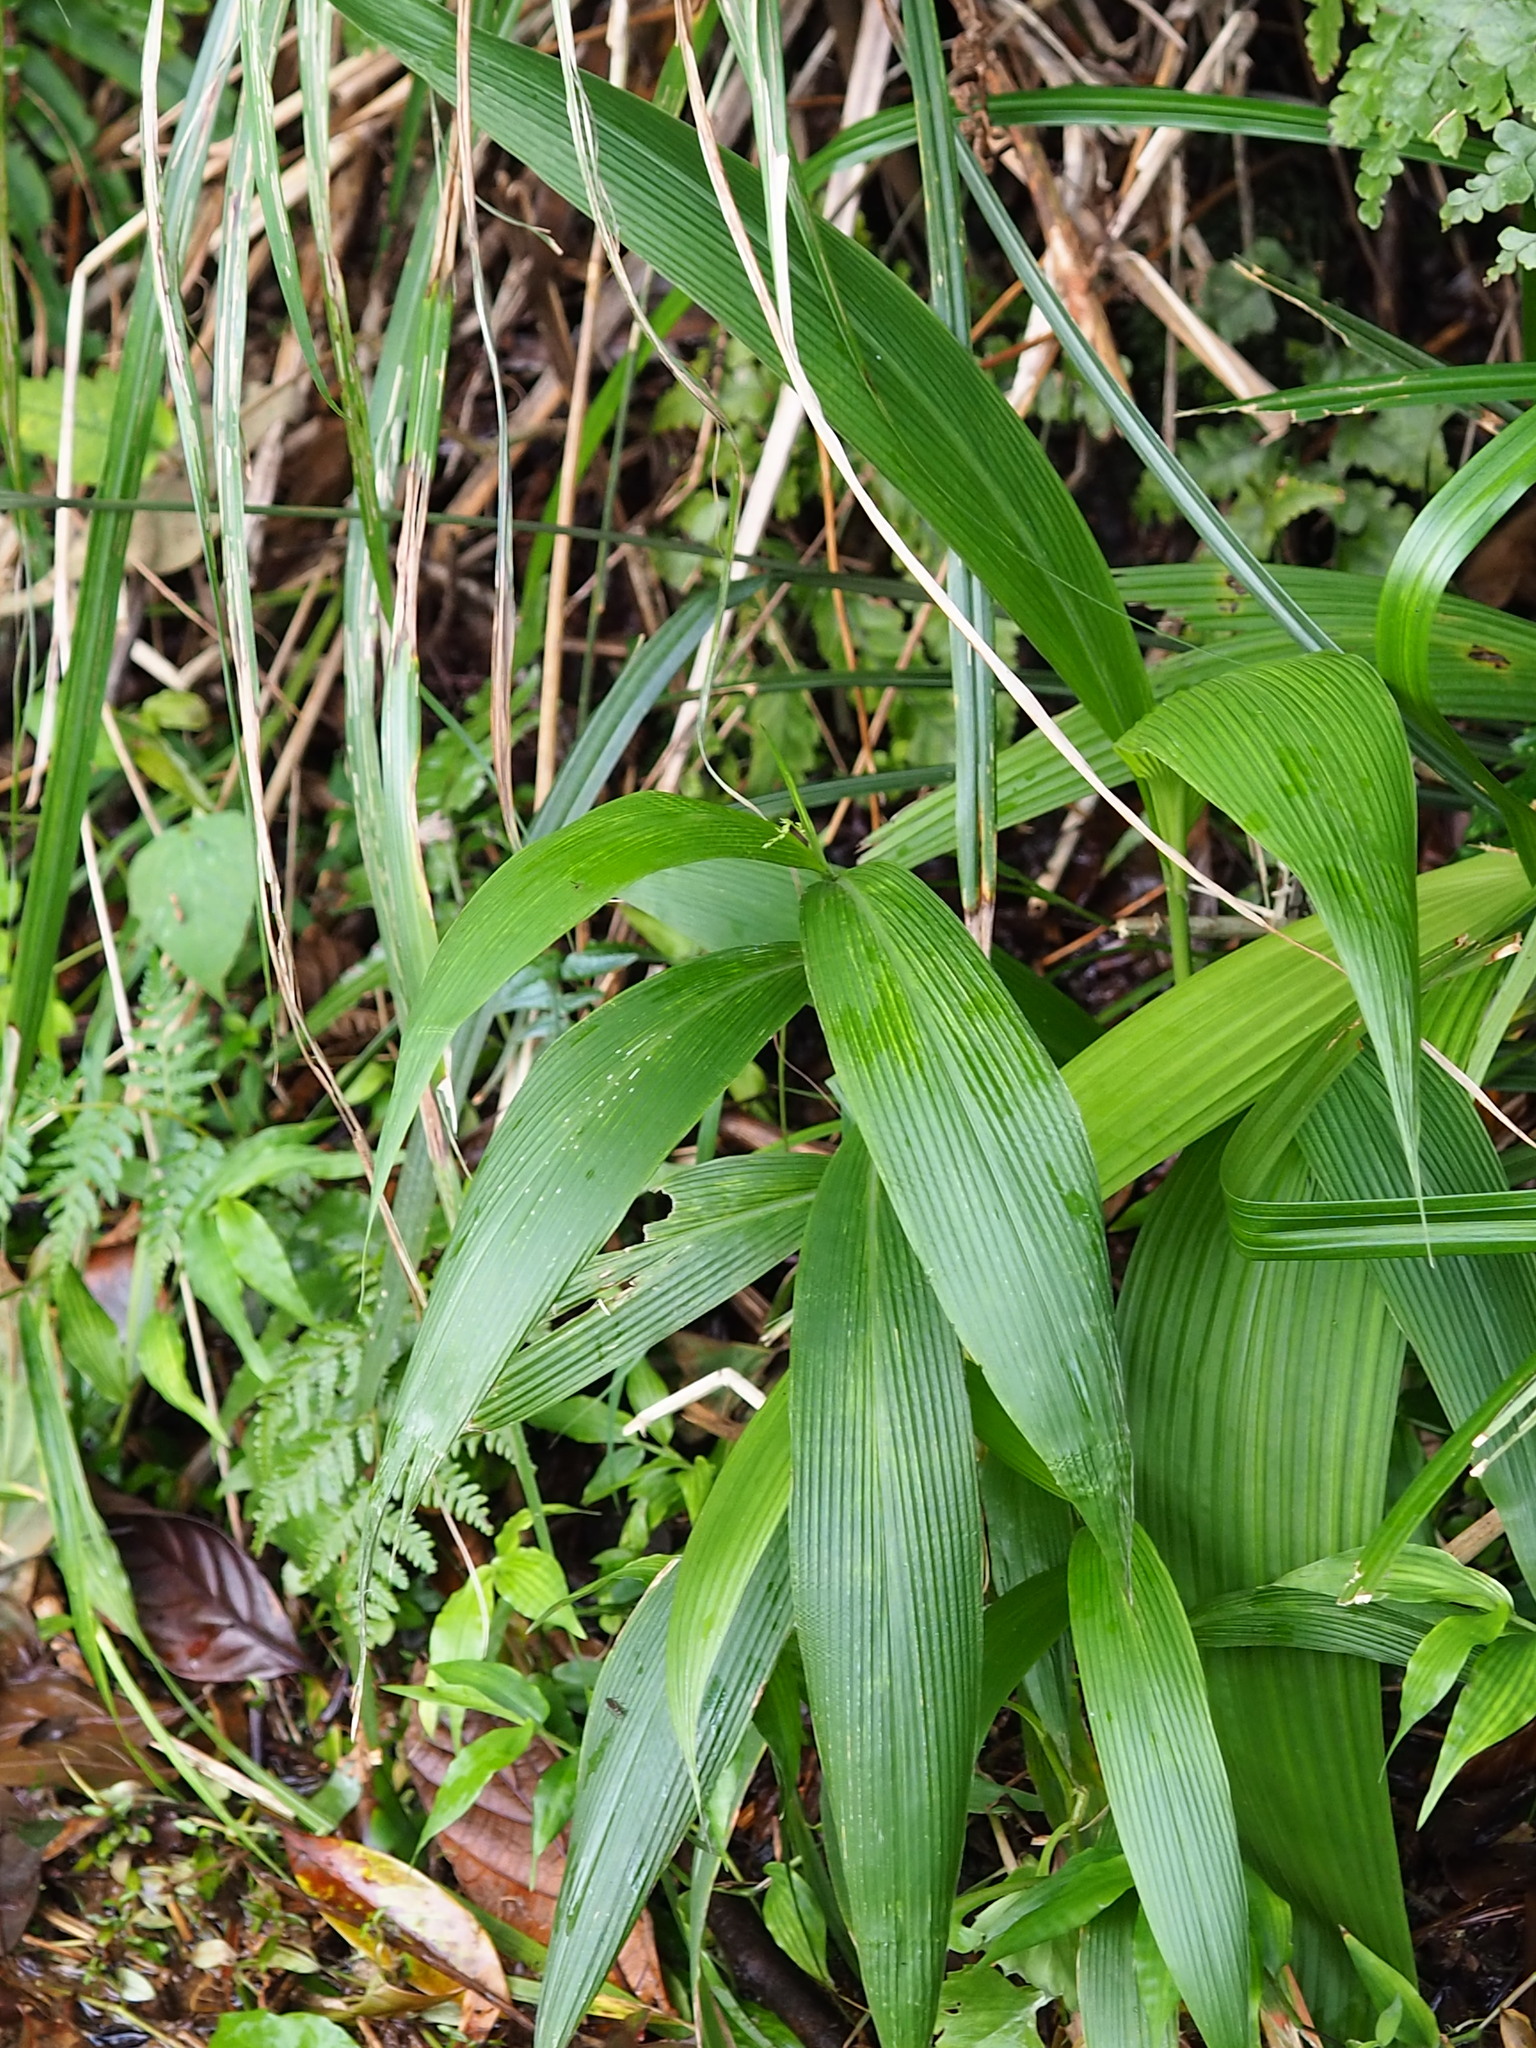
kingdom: Plantae
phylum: Tracheophyta
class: Liliopsida
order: Poales
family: Poaceae
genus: Setaria
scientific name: Setaria palmifolia
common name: Broadleaved bristlegrass
